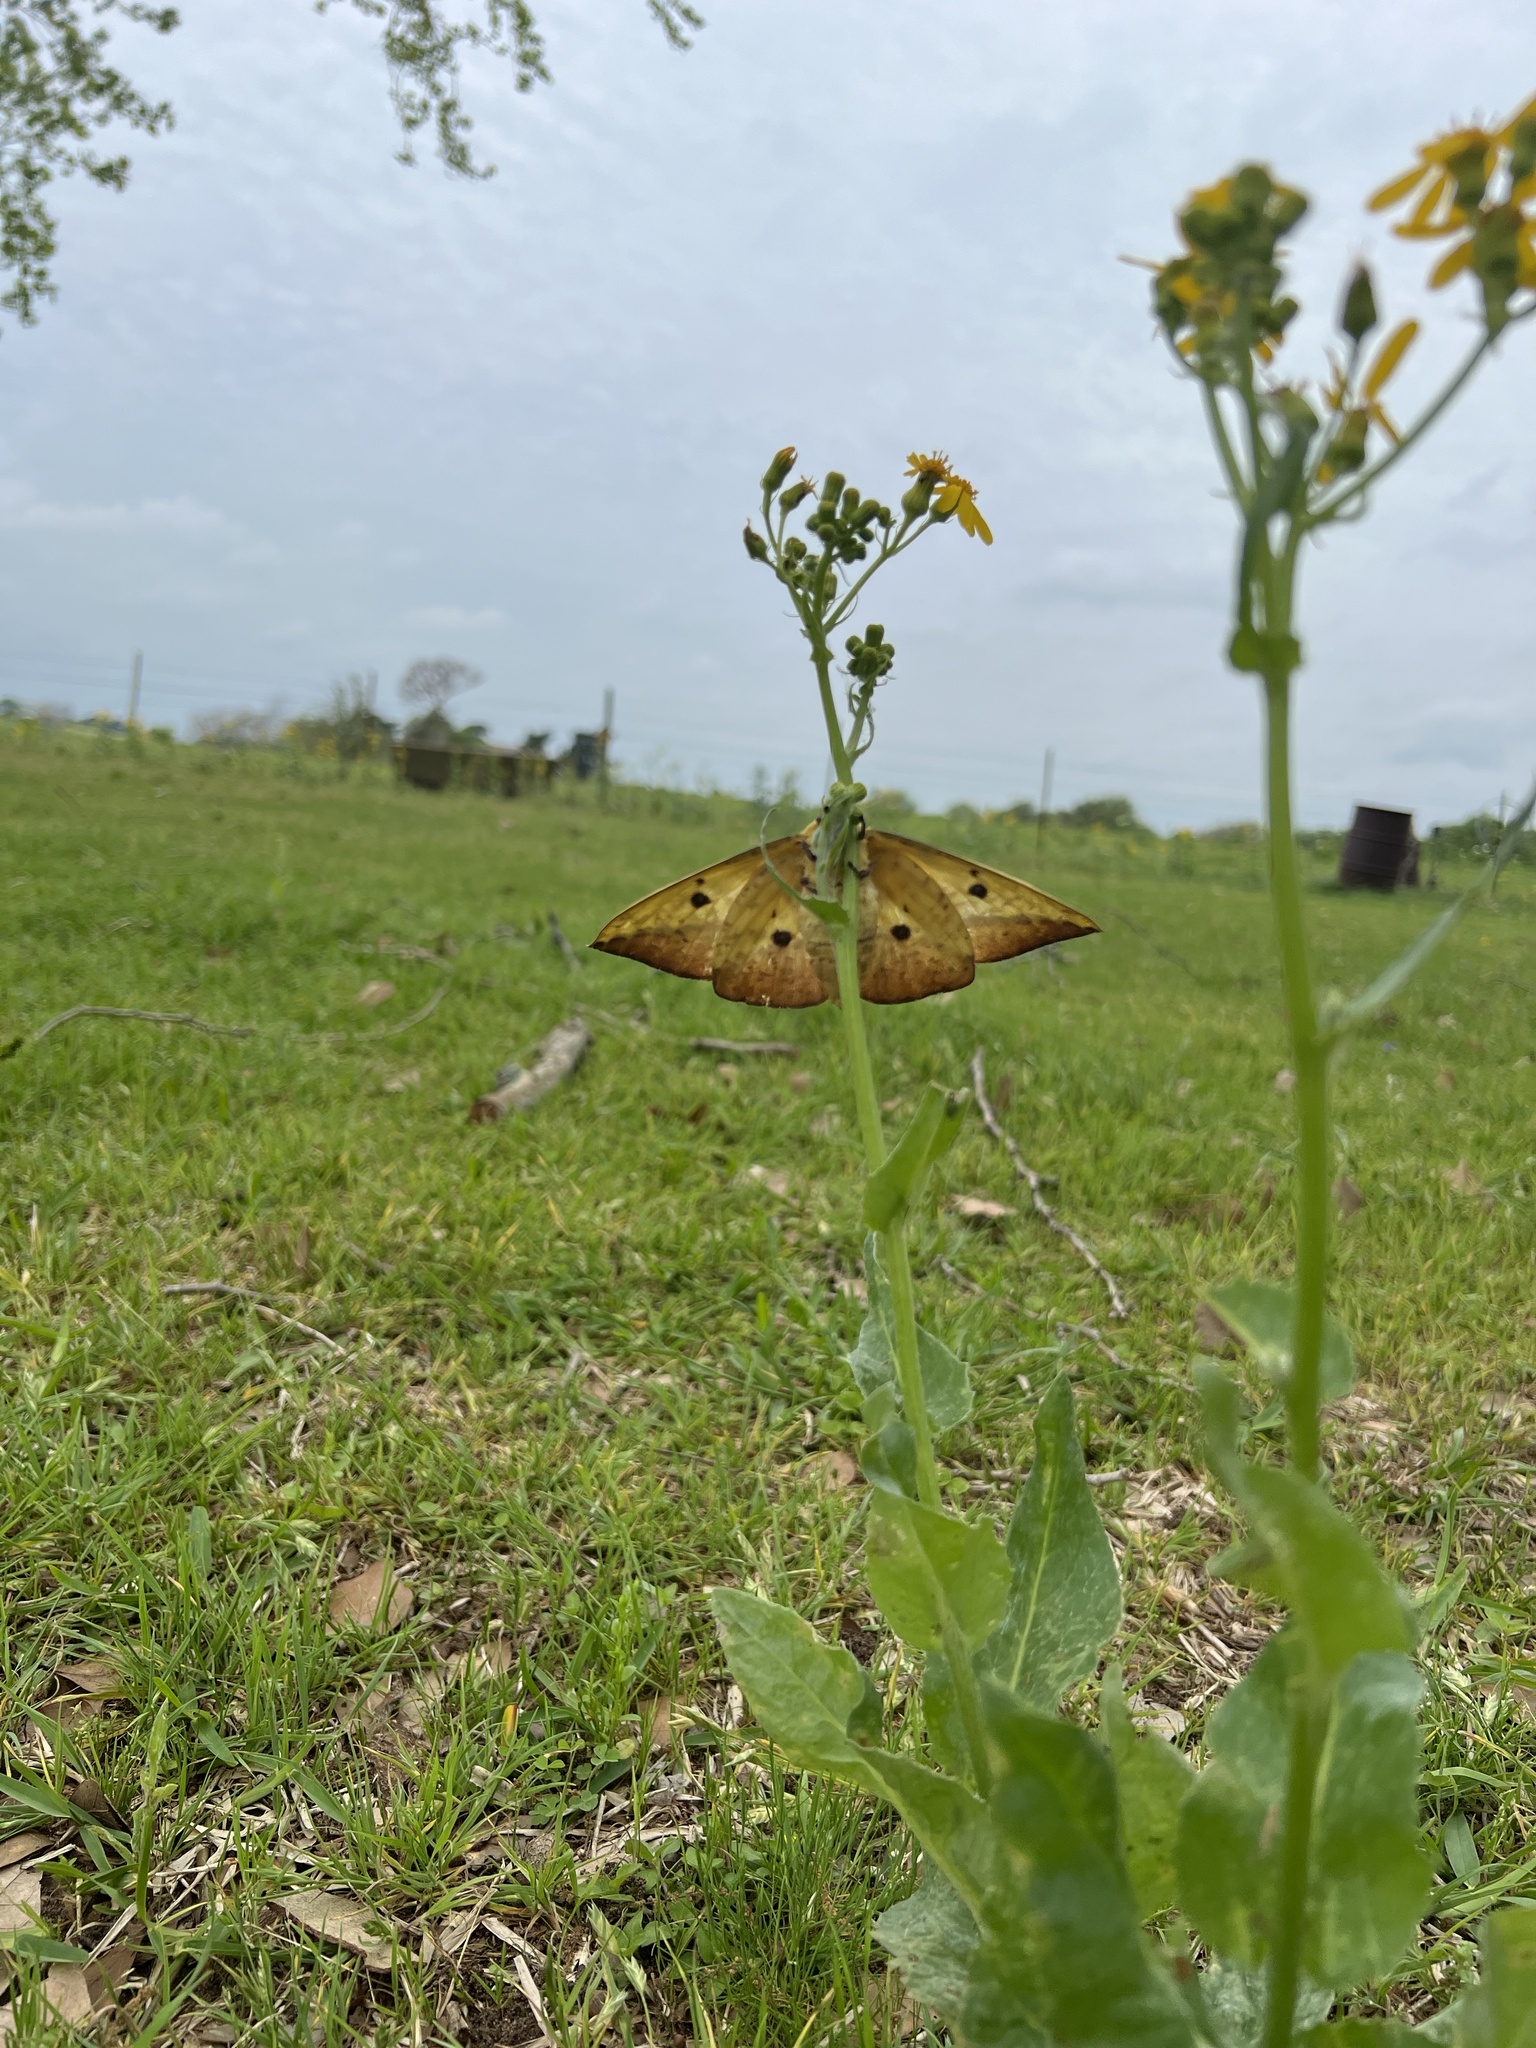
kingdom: Animalia
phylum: Arthropoda
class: Insecta
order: Lepidoptera
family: Saturniidae
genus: Eacles
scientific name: Eacles imperialis
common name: Imperial moth
